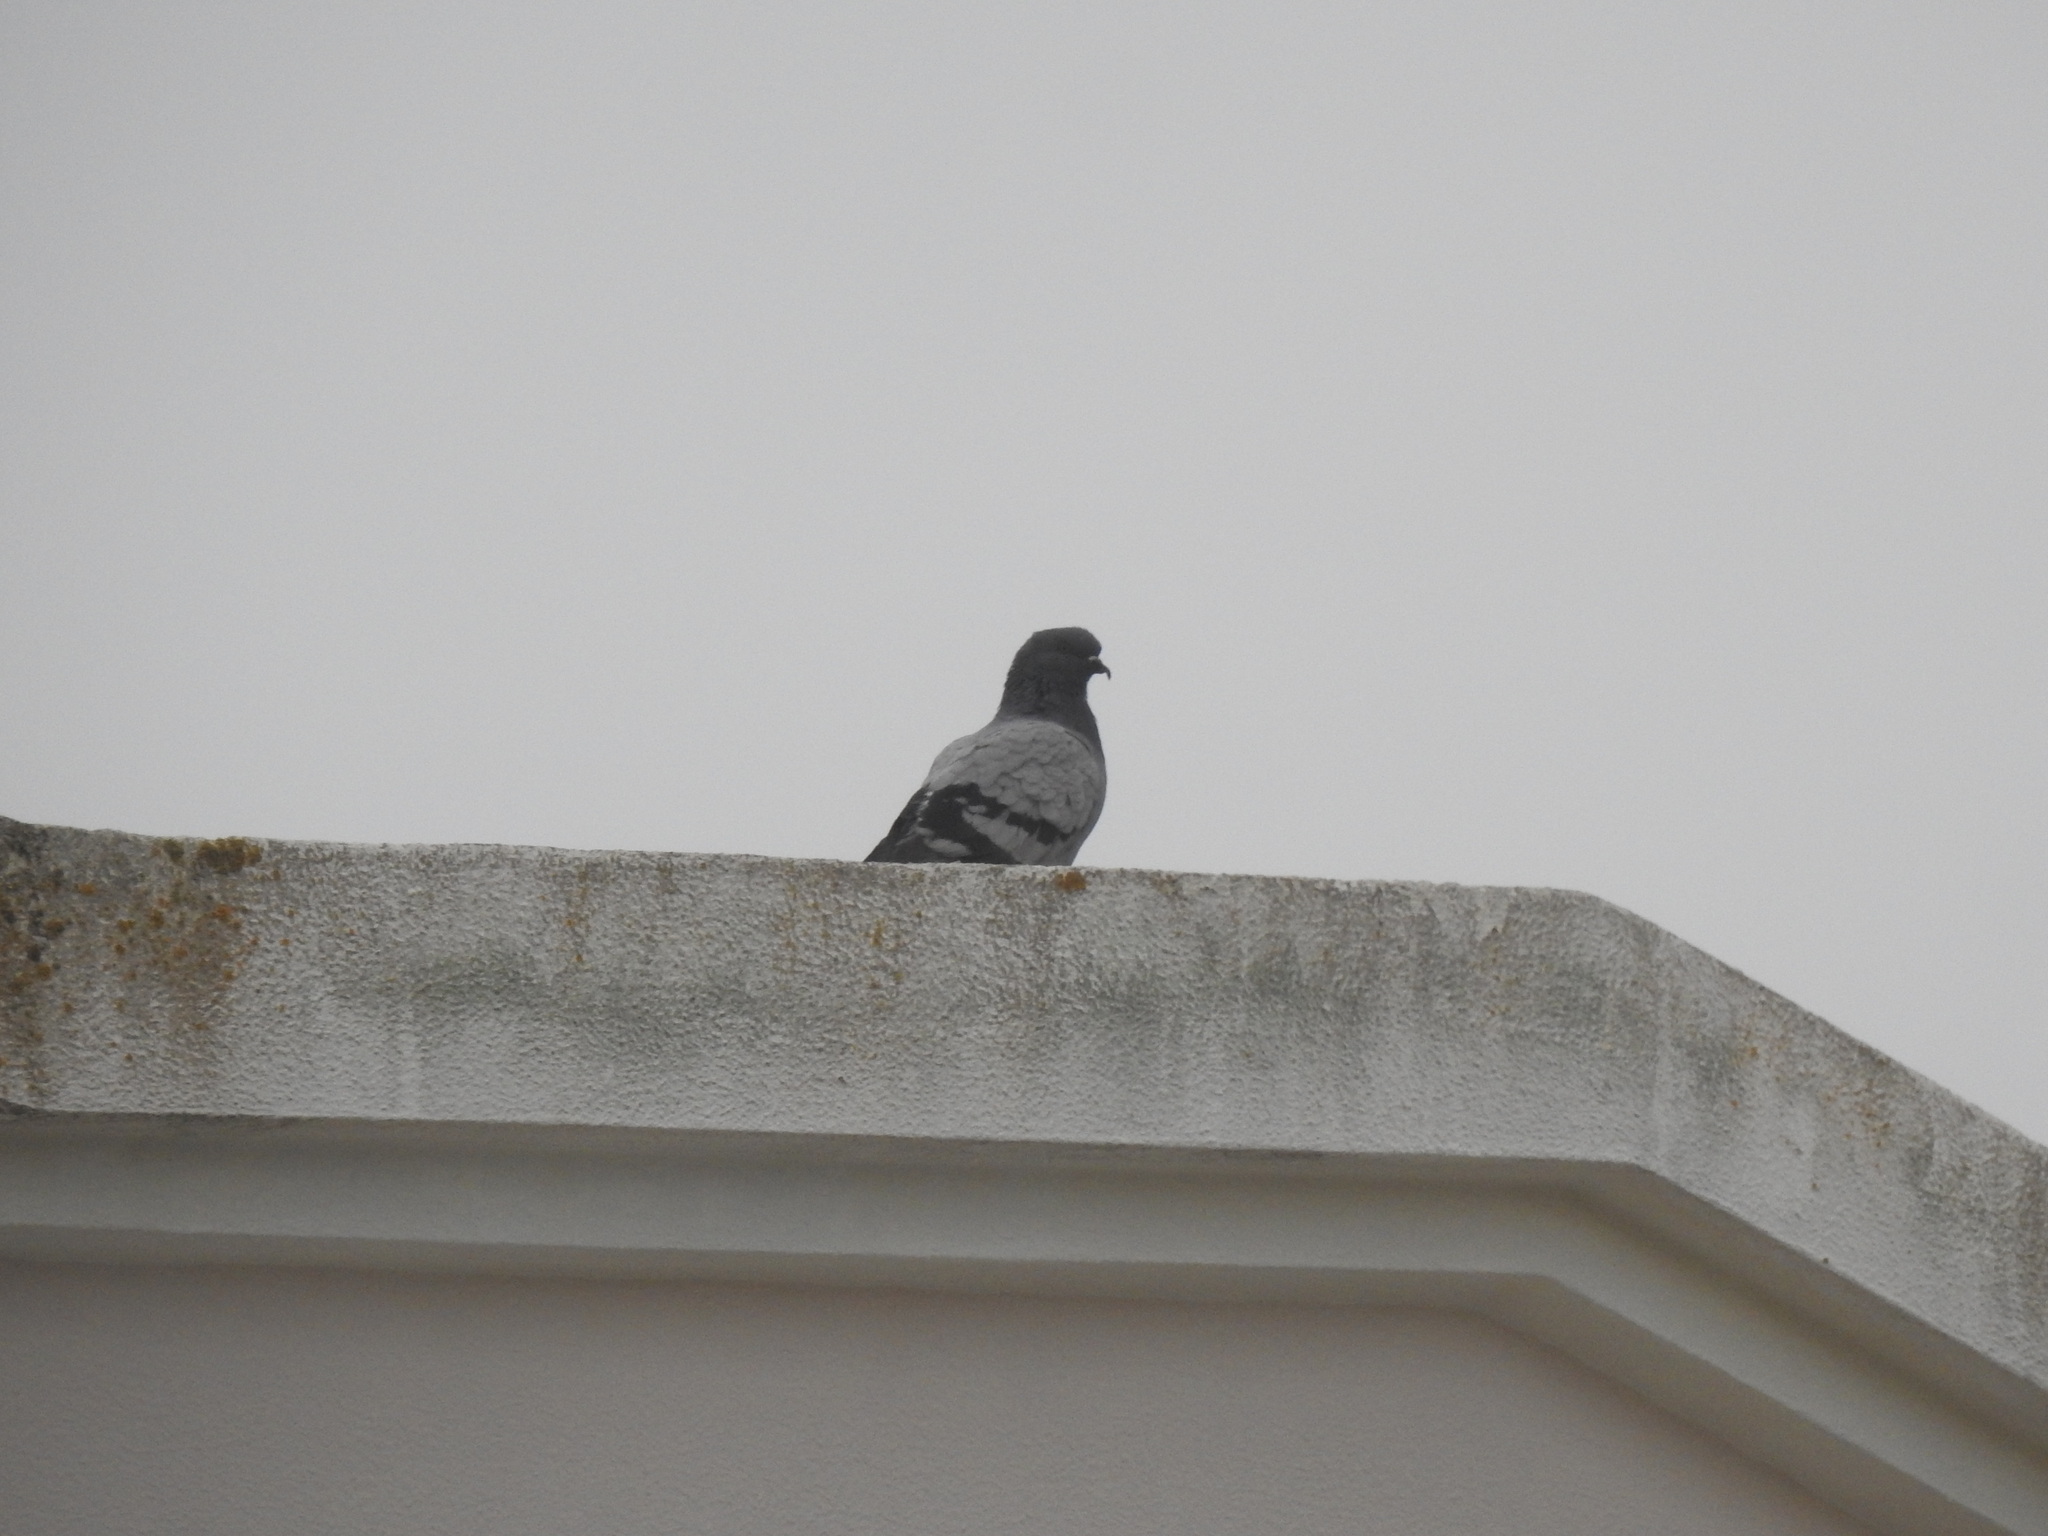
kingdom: Animalia
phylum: Chordata
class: Aves
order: Columbiformes
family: Columbidae
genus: Columba
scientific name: Columba livia
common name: Rock pigeon
